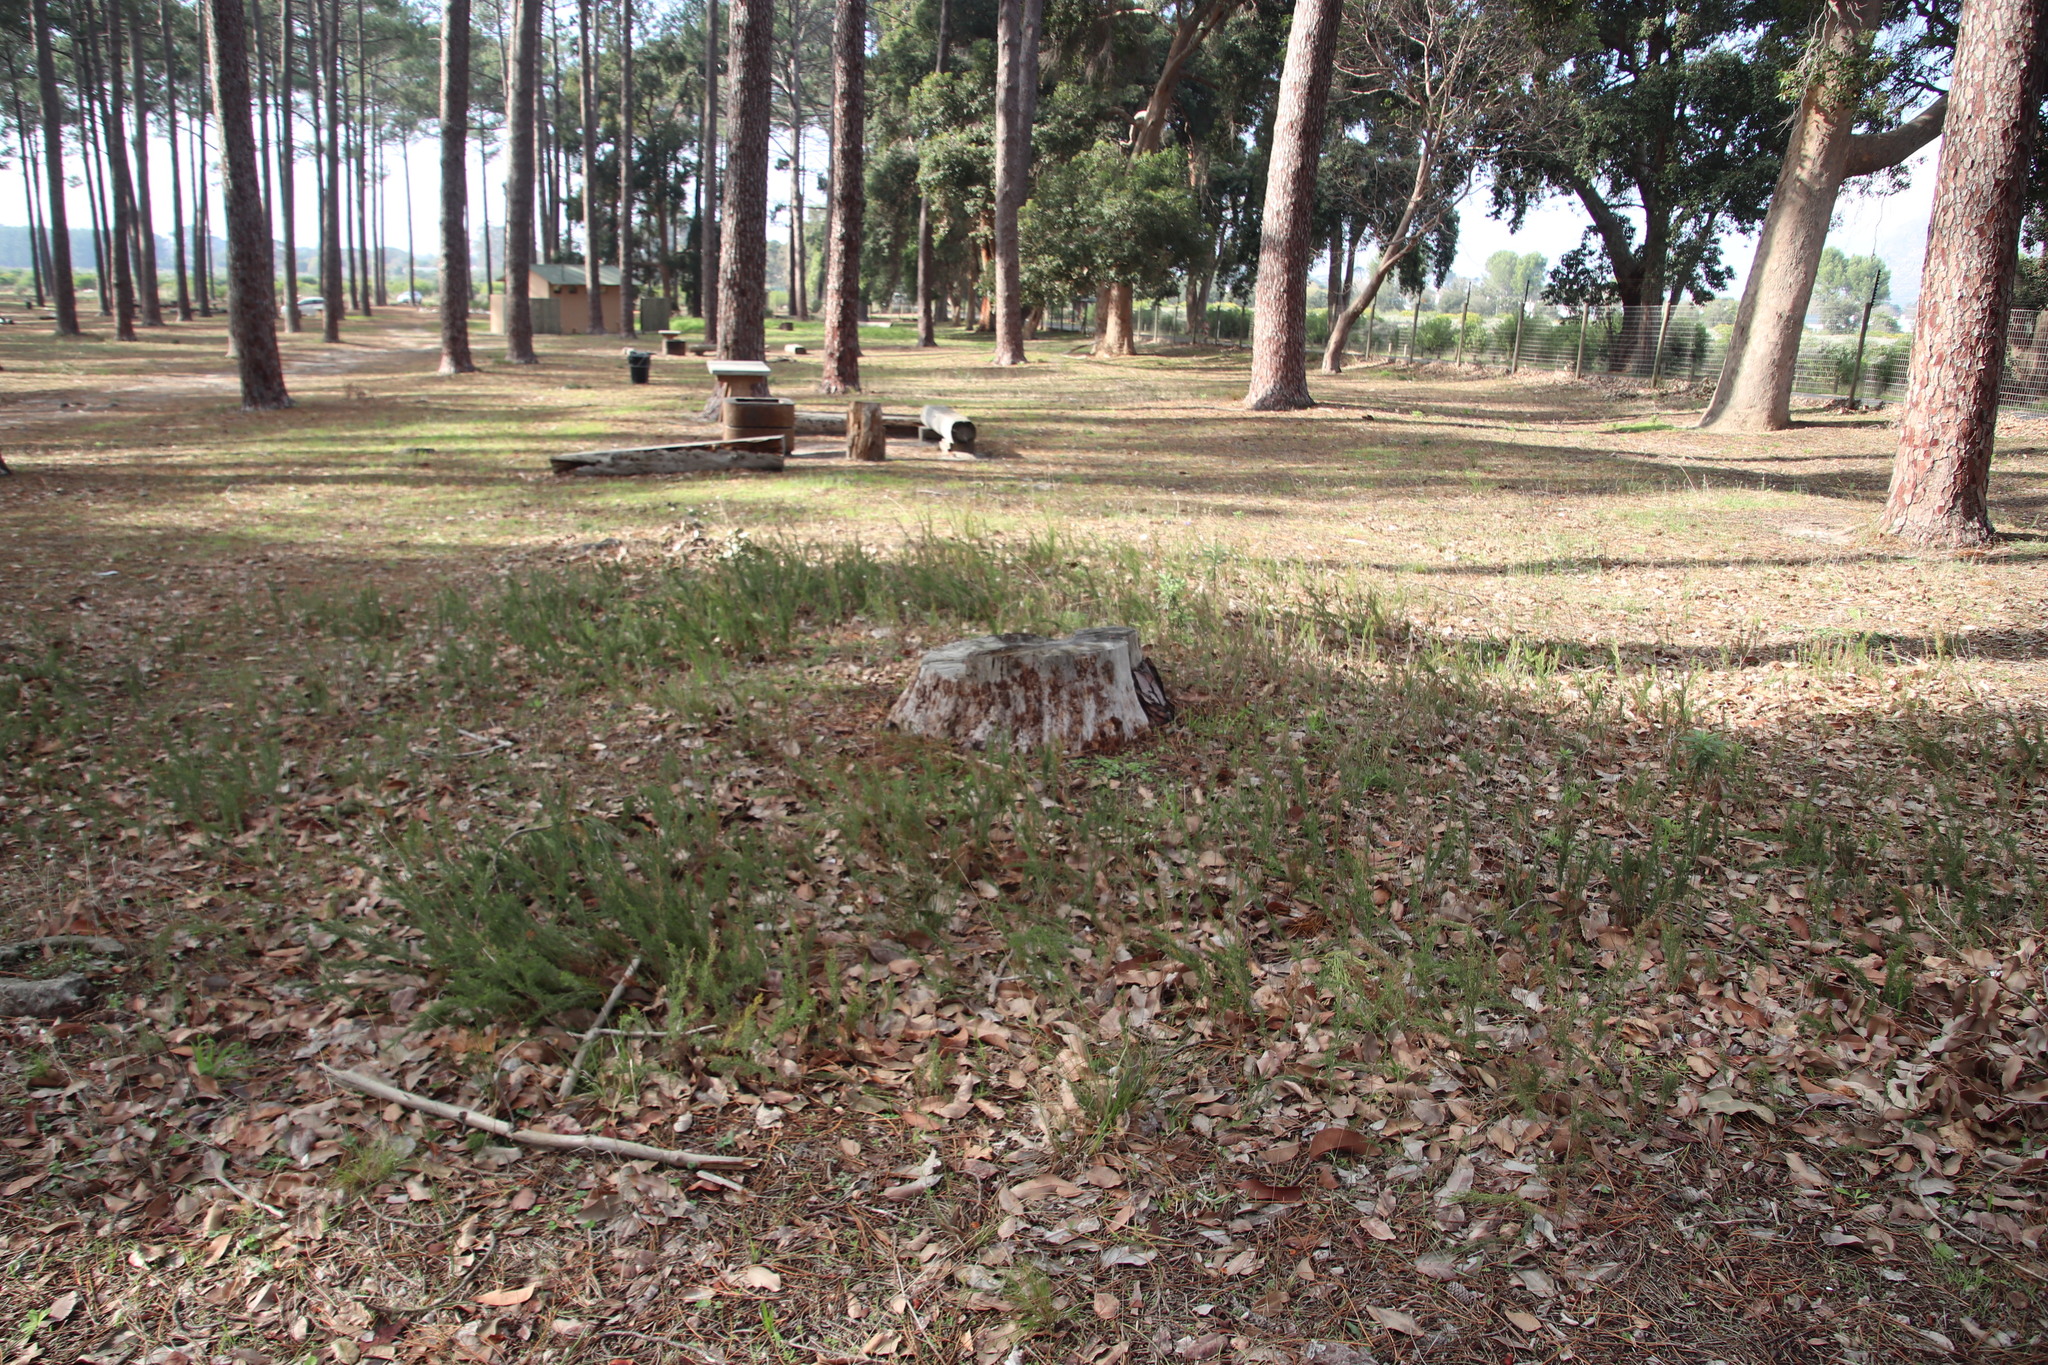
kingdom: Plantae
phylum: Tracheophyta
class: Liliopsida
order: Poales
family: Restionaceae
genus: Thamnochortus
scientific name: Thamnochortus fruticosus
